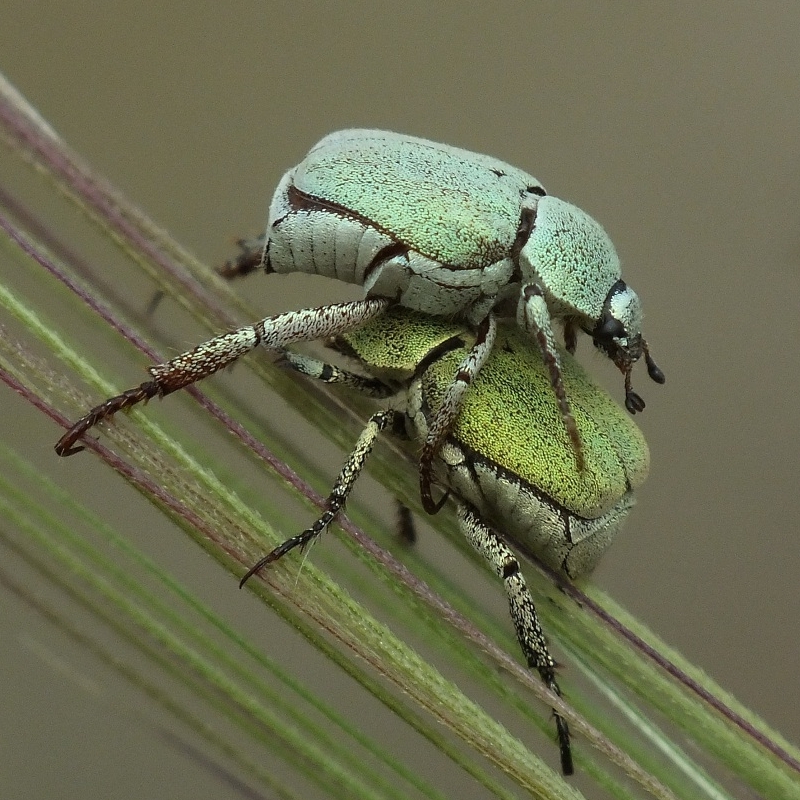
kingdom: Animalia
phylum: Arthropoda
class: Insecta
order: Coleoptera
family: Scarabaeidae
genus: Hoplia
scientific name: Hoplia parvula
